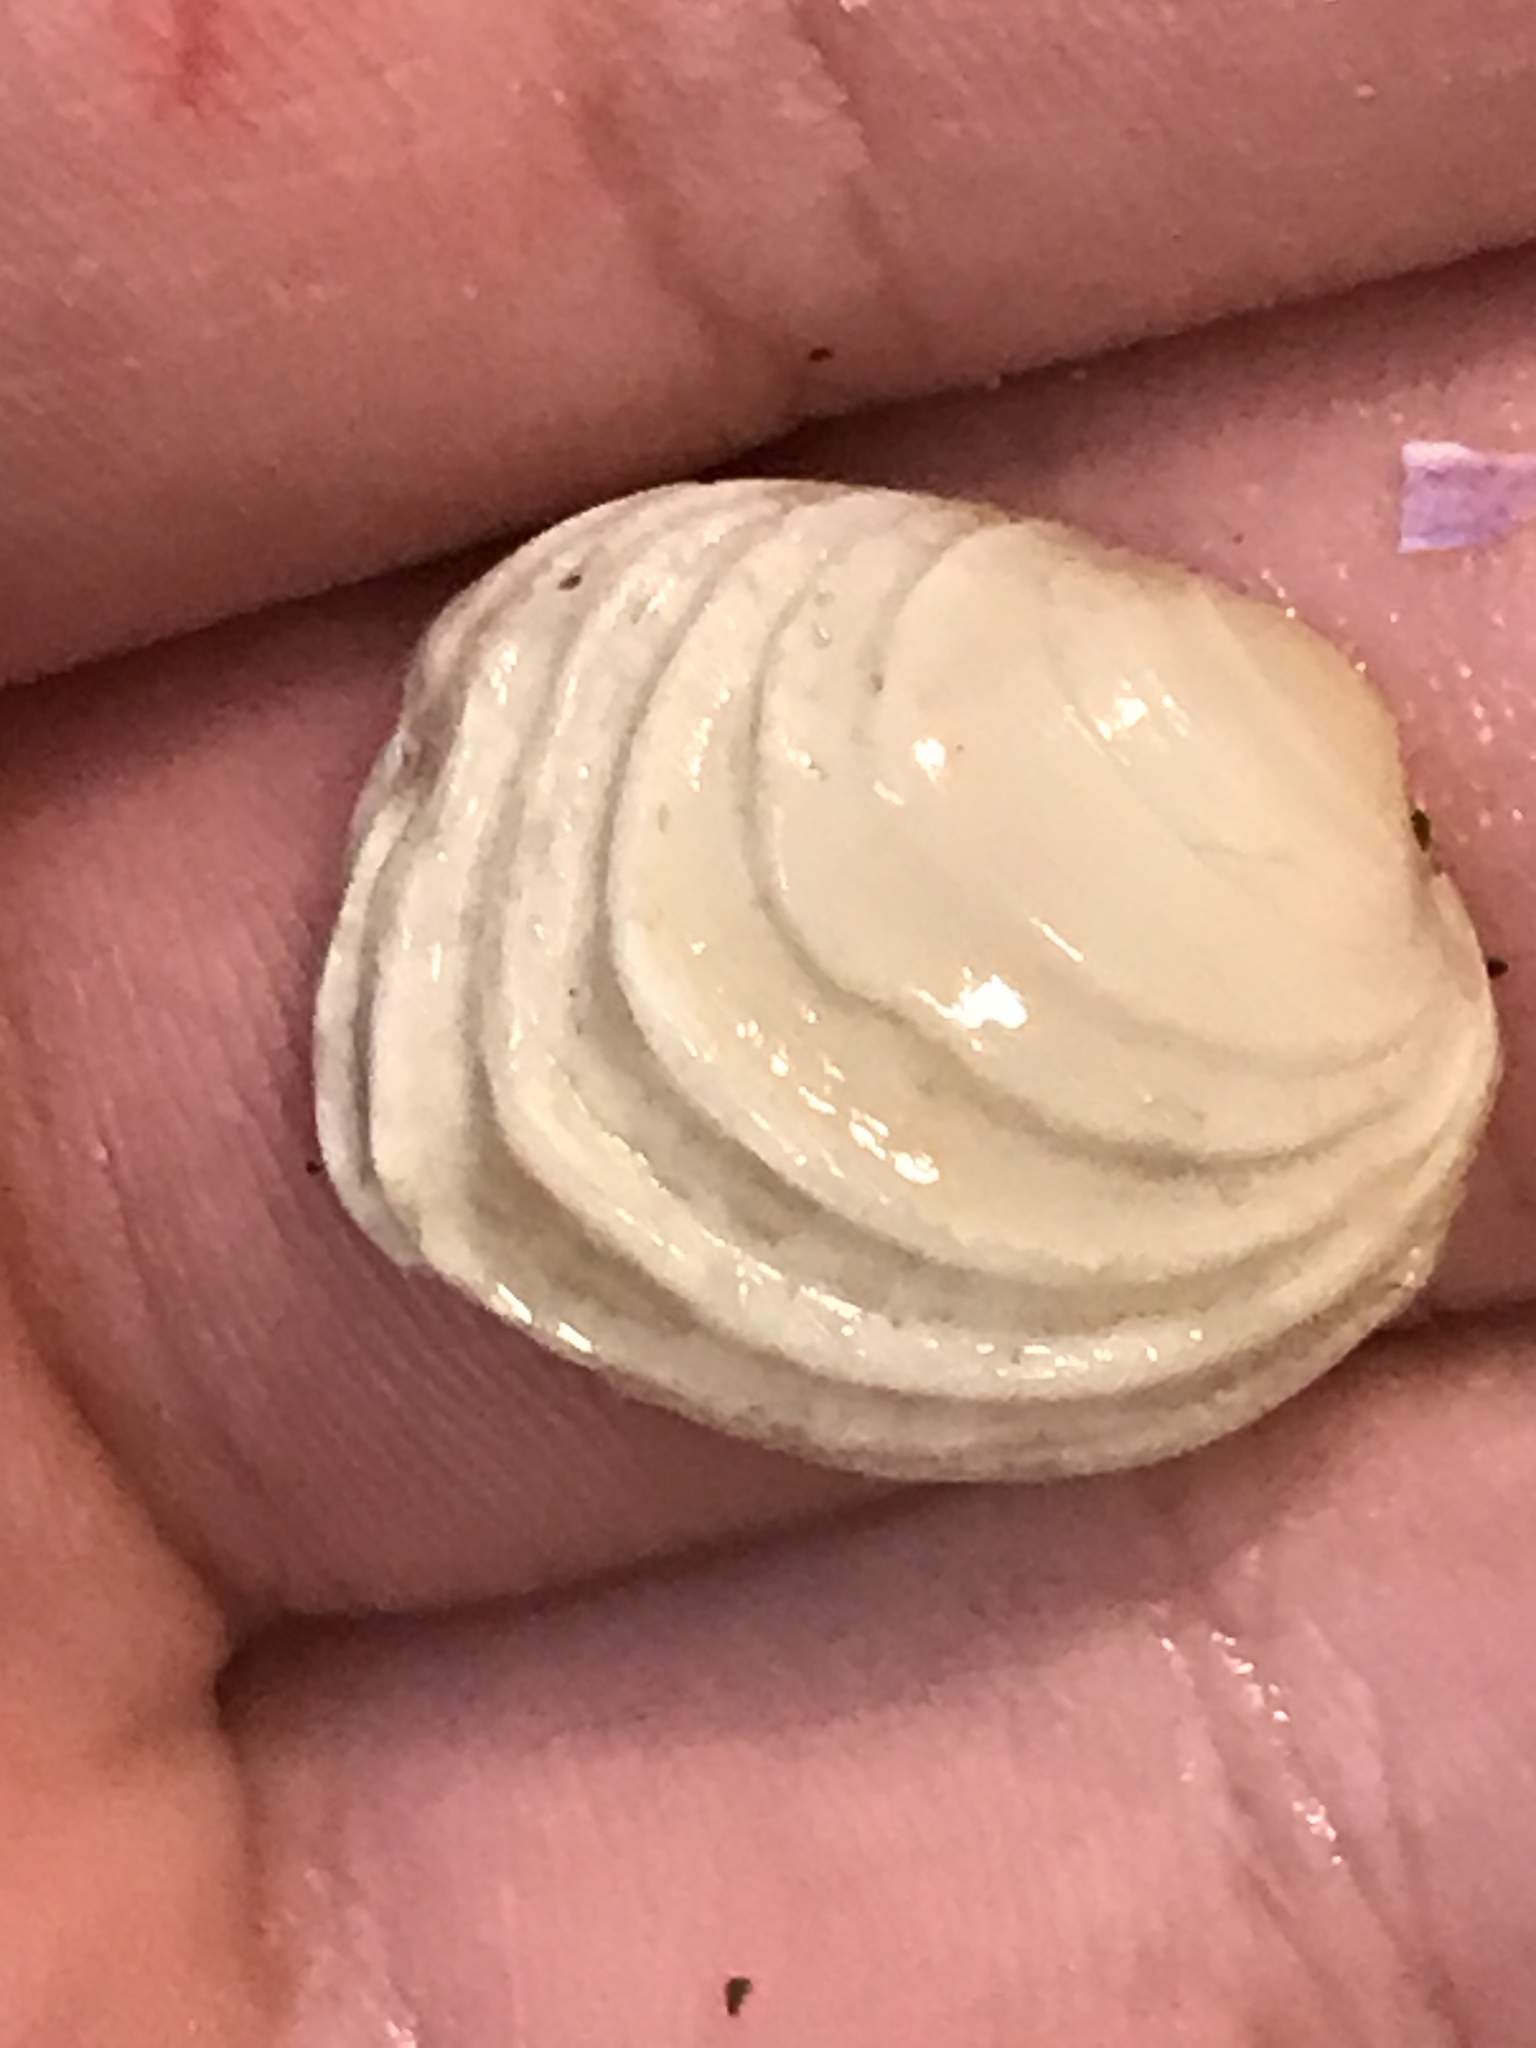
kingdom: Animalia
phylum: Mollusca
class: Bivalvia
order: Venerida
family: Veneridae
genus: Irusella
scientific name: Irusella lamellifera
